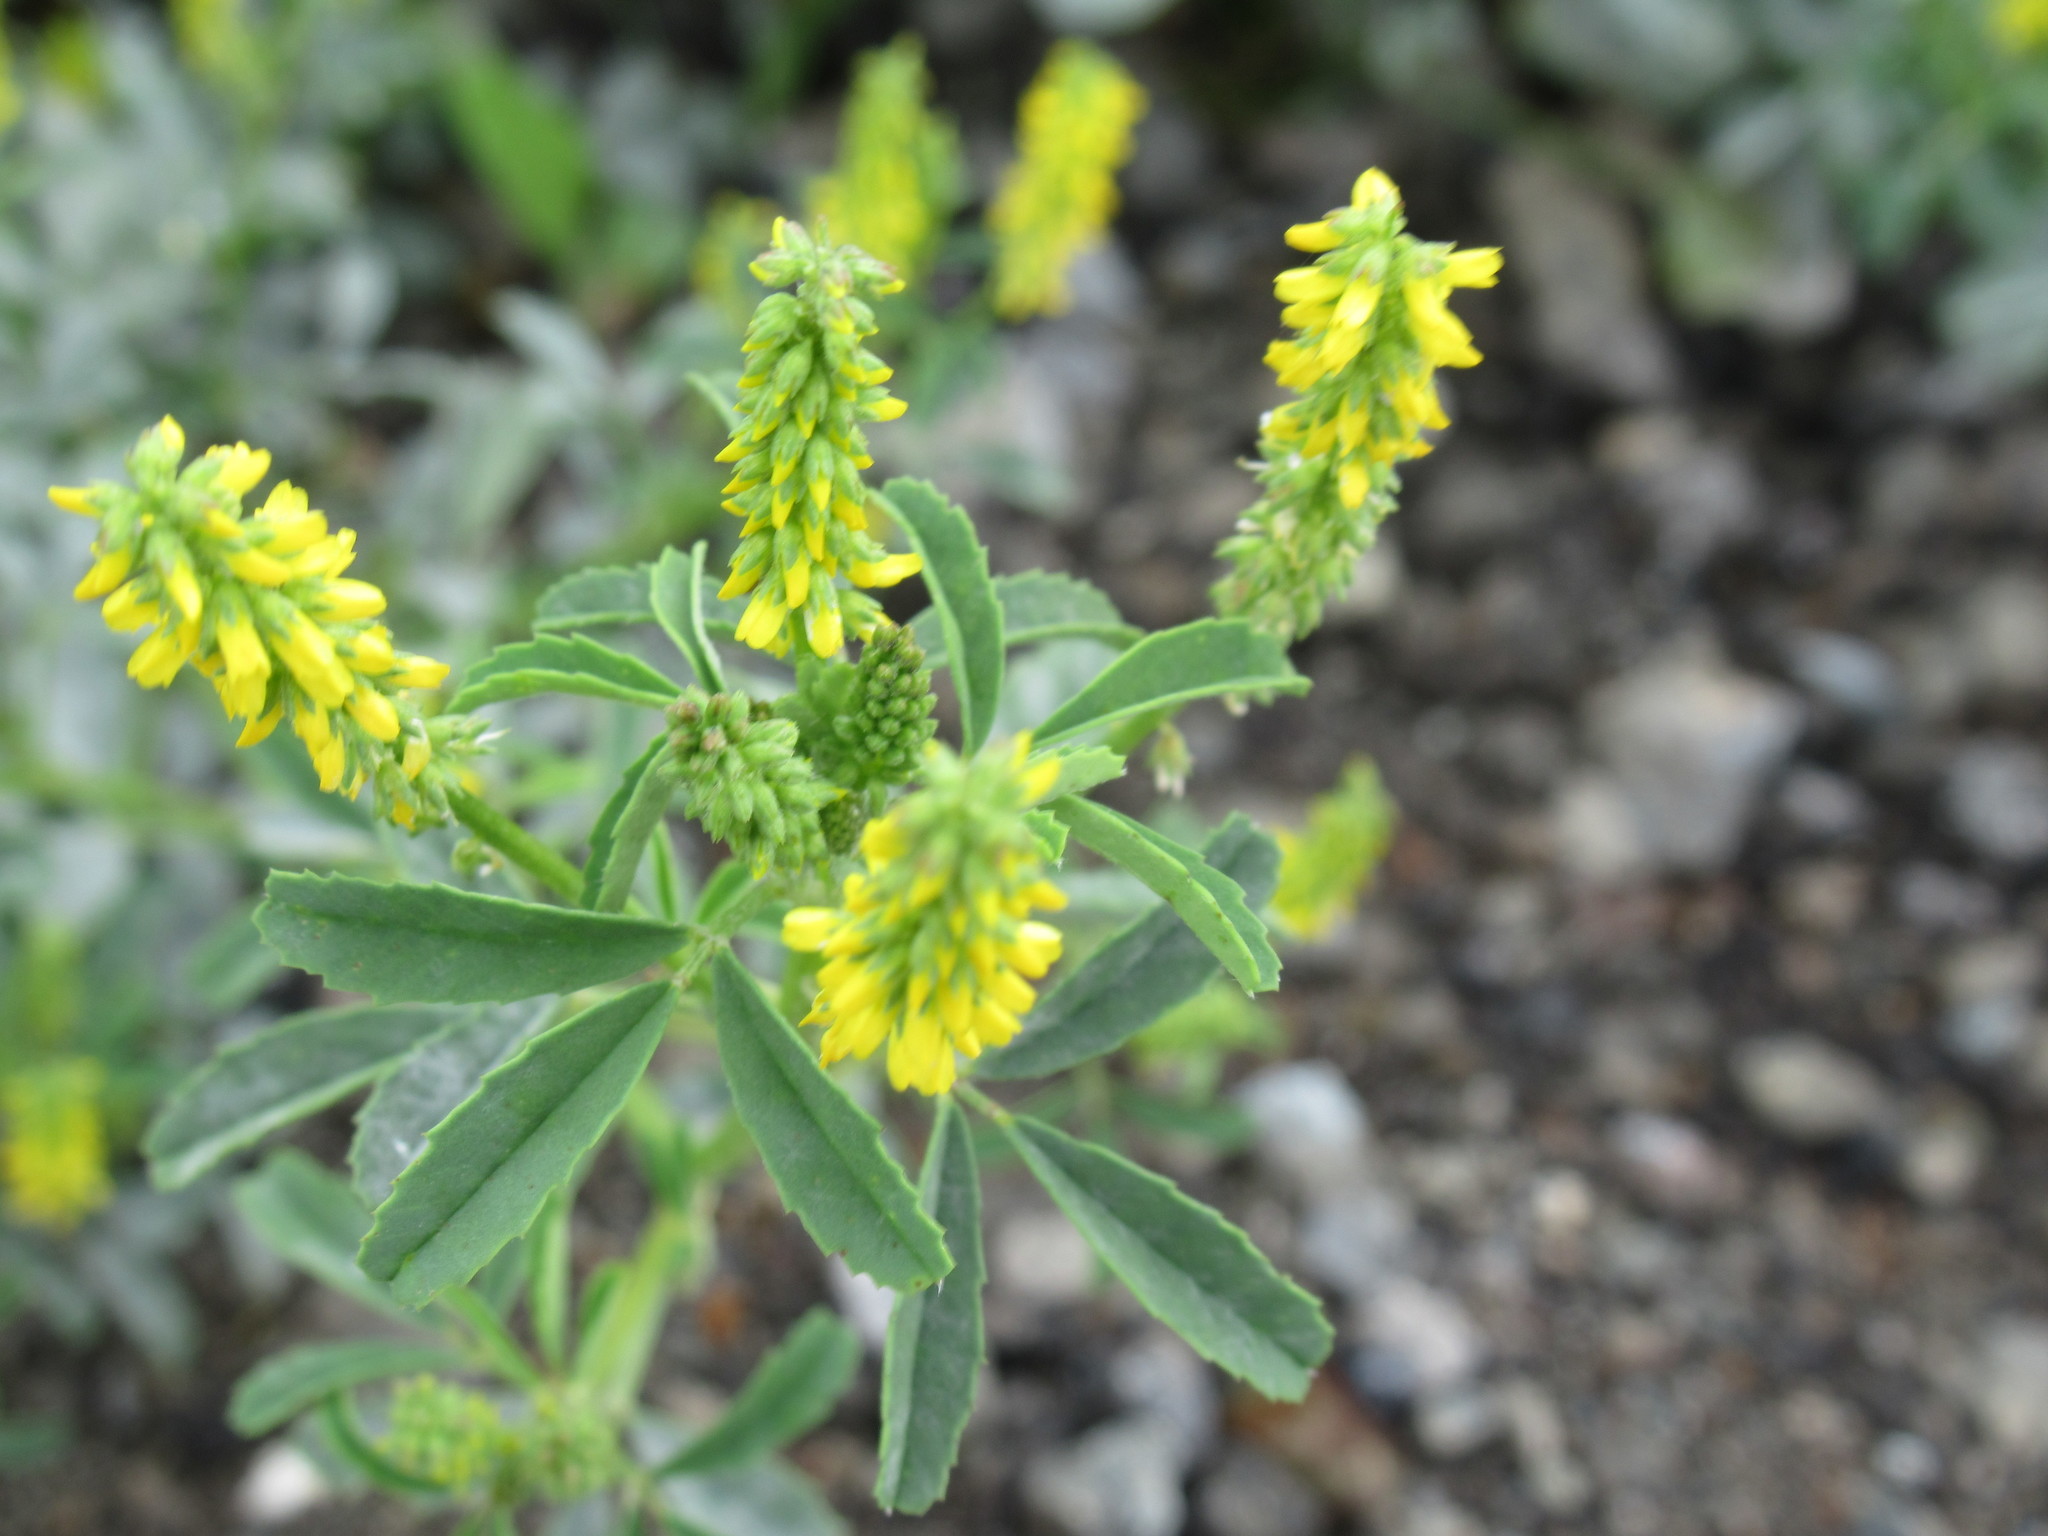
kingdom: Plantae
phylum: Tracheophyta
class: Magnoliopsida
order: Fabales
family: Fabaceae
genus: Melilotus
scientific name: Melilotus indicus
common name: Small melilot
